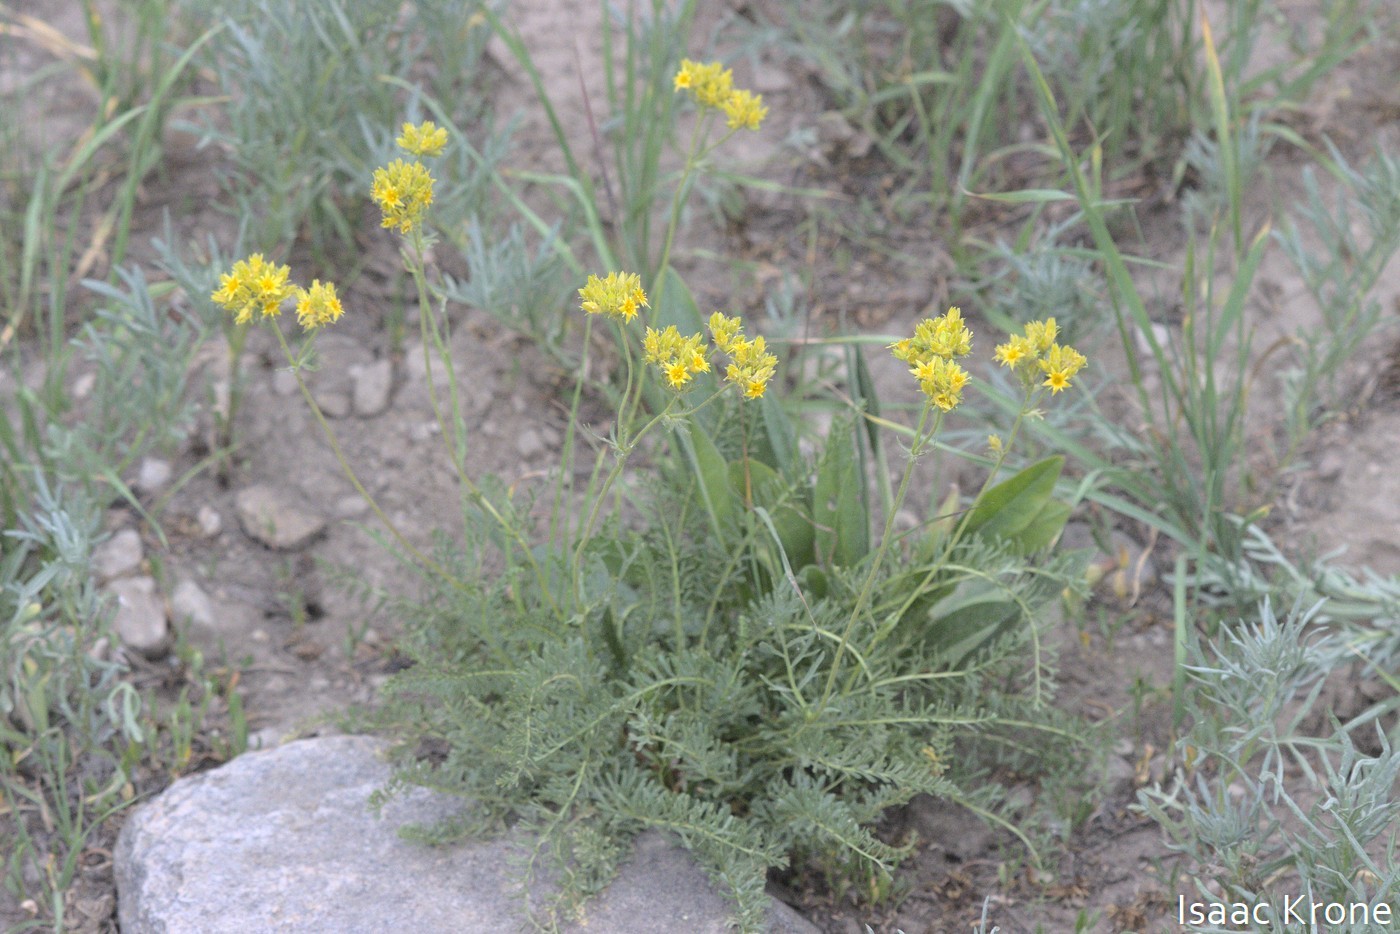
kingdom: Plantae
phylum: Tracheophyta
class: Magnoliopsida
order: Rosales
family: Rosaceae
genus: Potentilla
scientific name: Potentilla gordonii
